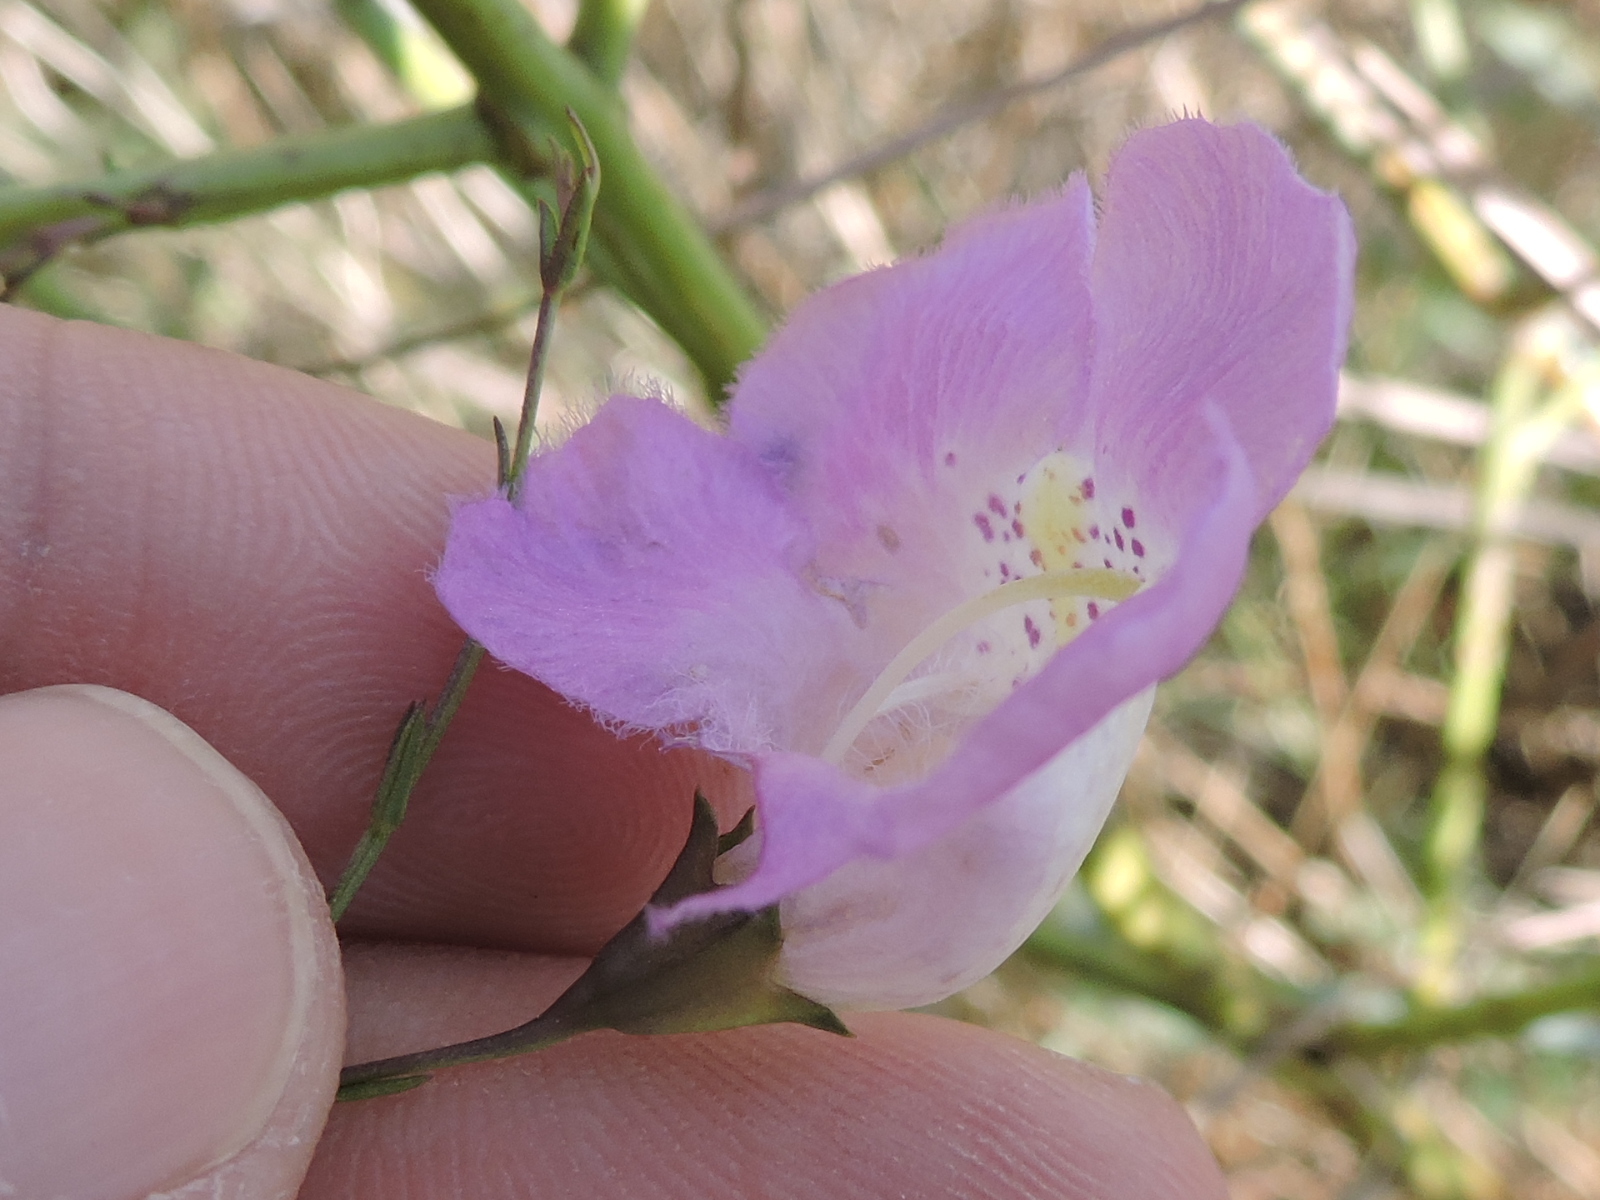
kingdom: Plantae
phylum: Tracheophyta
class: Magnoliopsida
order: Lamiales
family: Orobanchaceae
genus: Agalinis
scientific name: Agalinis strictifolia
